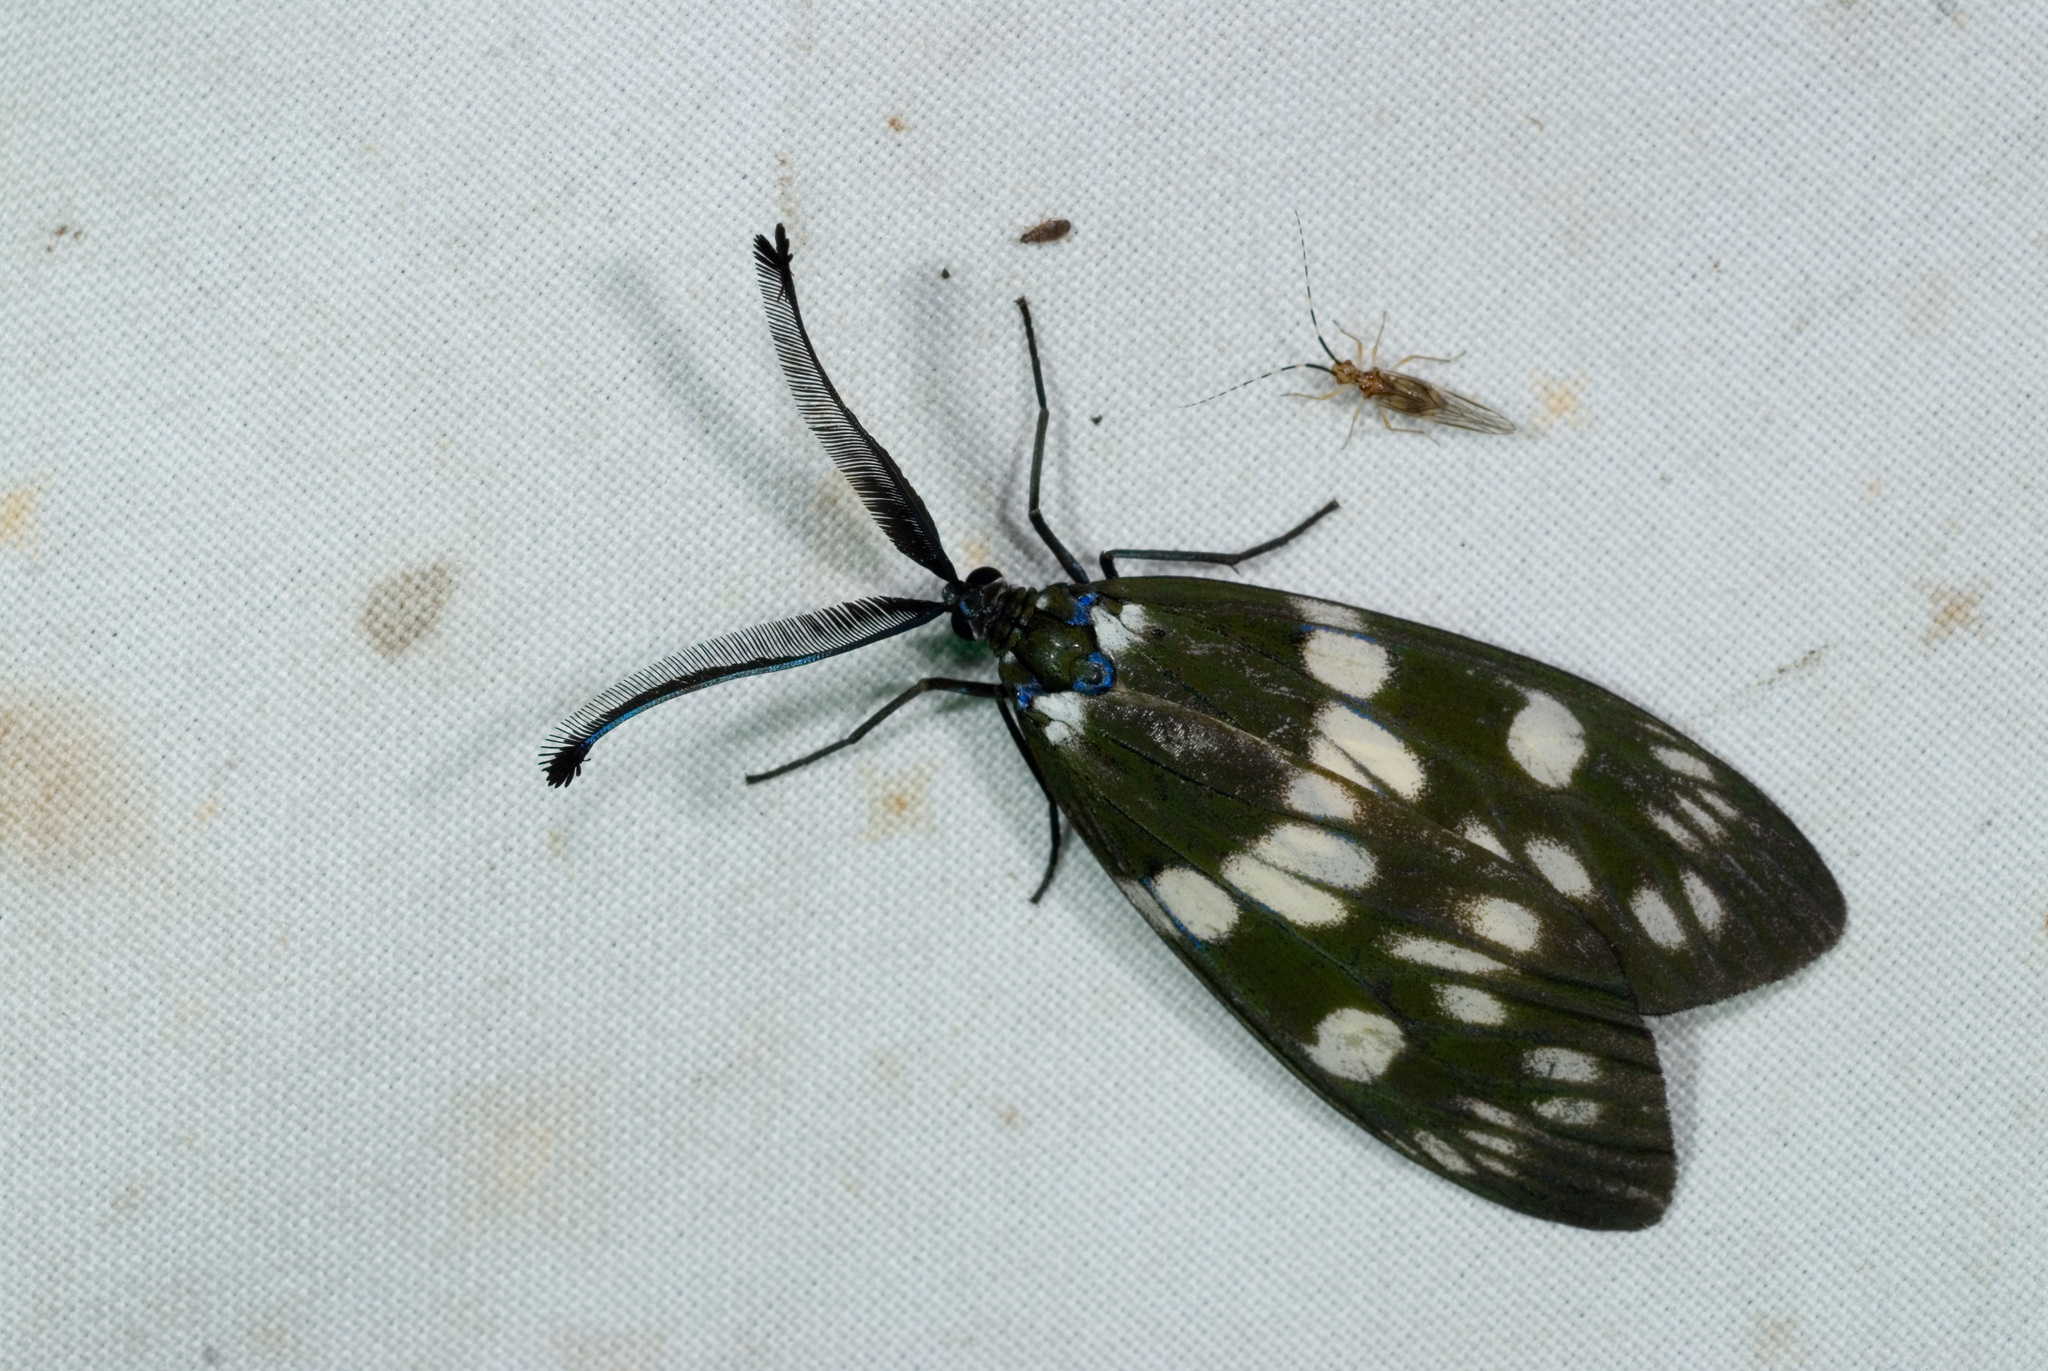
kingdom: Animalia
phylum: Arthropoda
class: Insecta
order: Lepidoptera
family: Zygaenidae
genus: Eterusia
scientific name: Eterusia aedea
